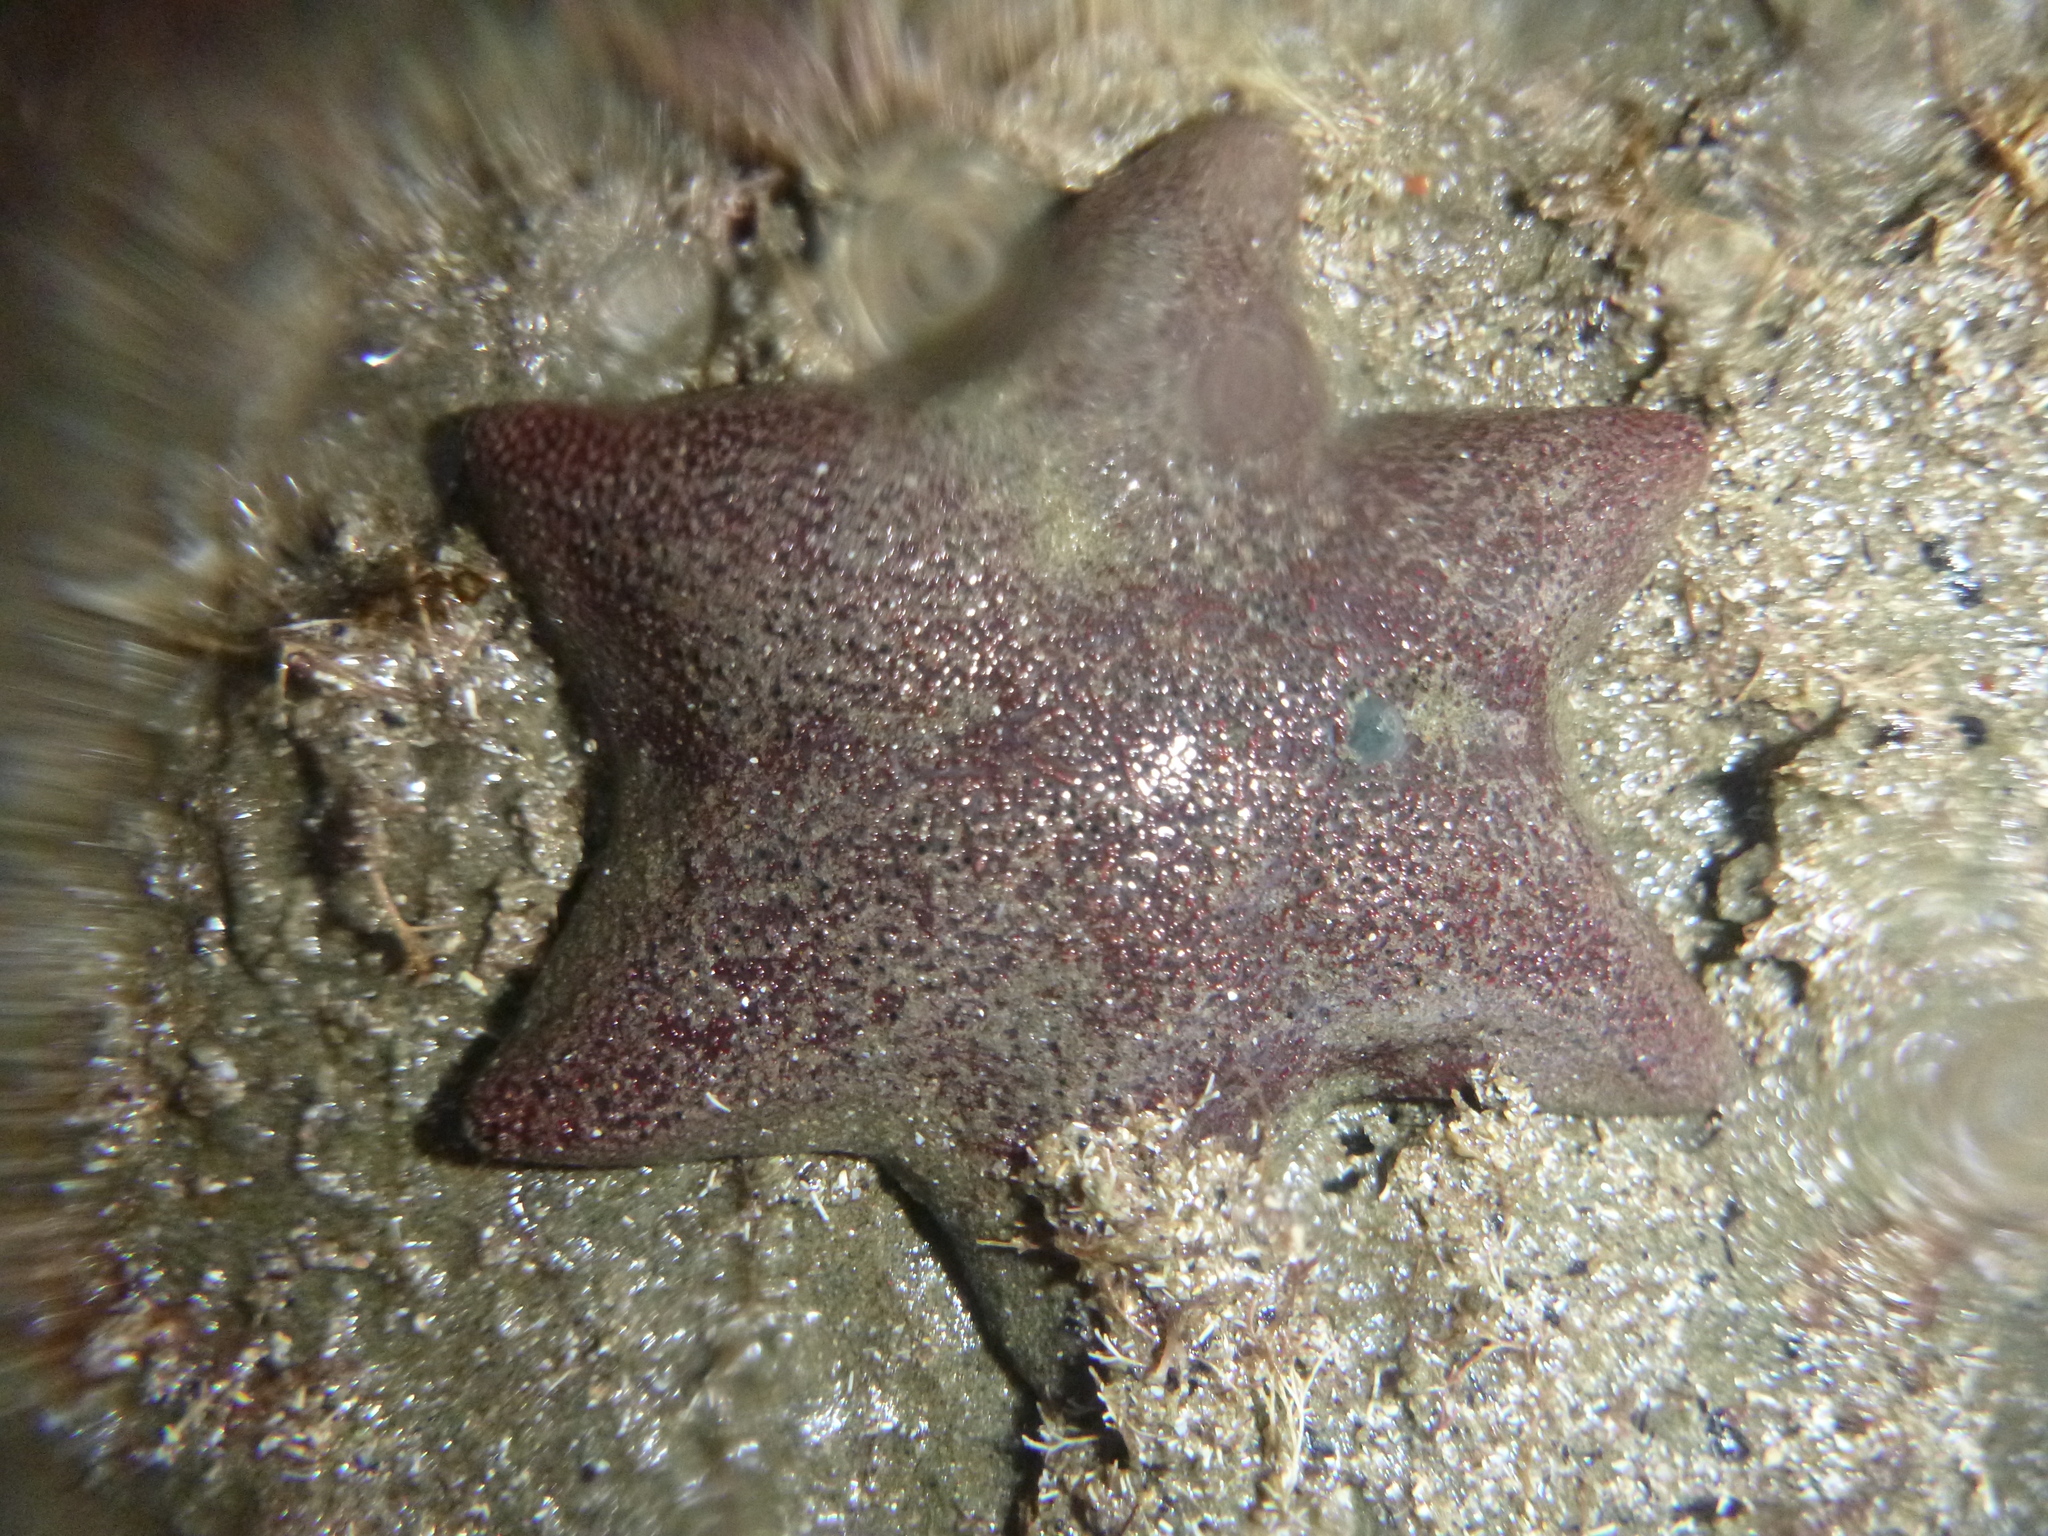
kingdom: Animalia
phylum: Echinodermata
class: Asteroidea
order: Valvatida
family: Asterinidae
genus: Patiriella
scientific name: Patiriella regularis
